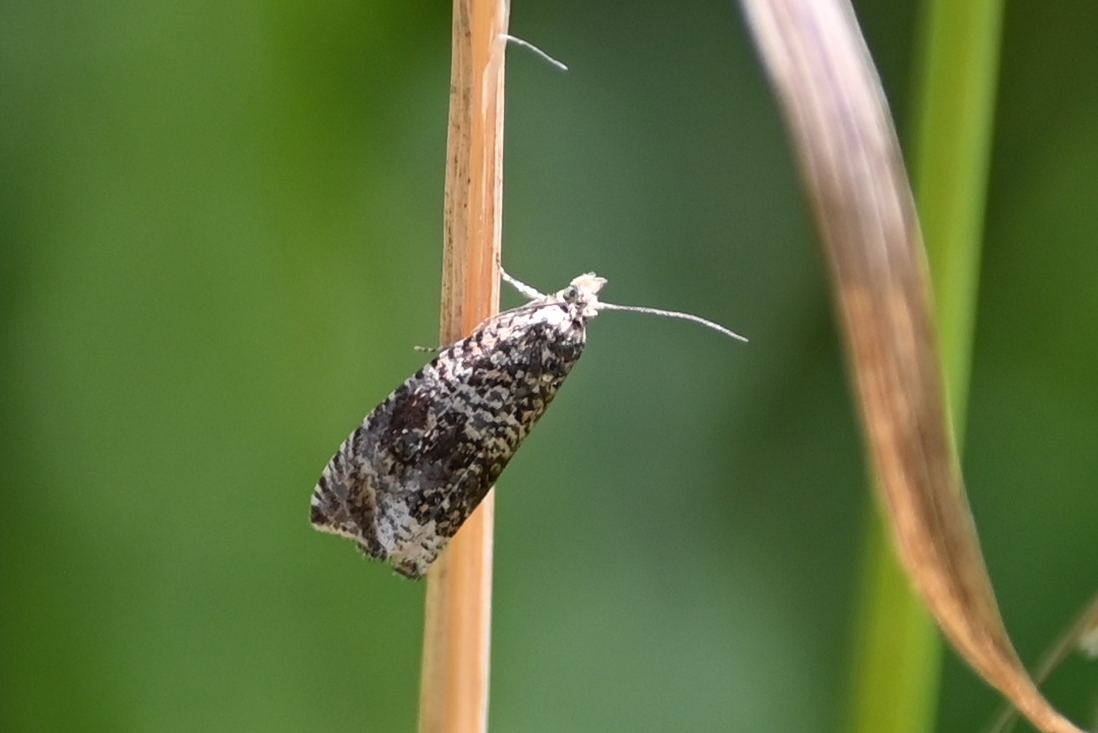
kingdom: Animalia
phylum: Arthropoda
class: Insecta
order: Lepidoptera
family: Tortricidae
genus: Syricoris
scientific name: Syricoris lacunana
